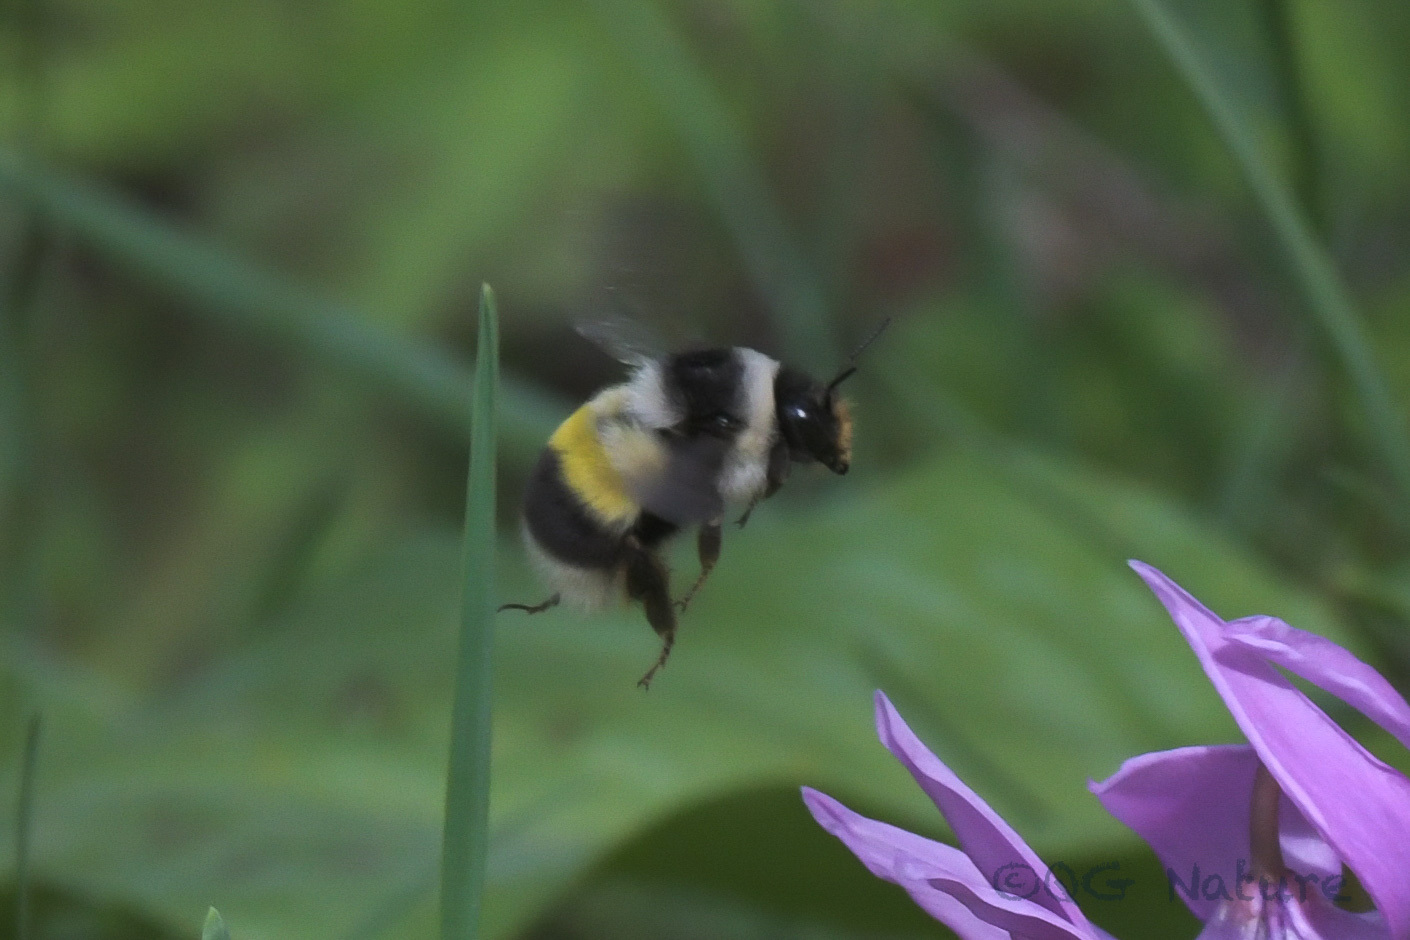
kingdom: Animalia
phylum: Arthropoda
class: Insecta
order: Hymenoptera
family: Apidae
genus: Bombus
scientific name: Bombus patagiatus
